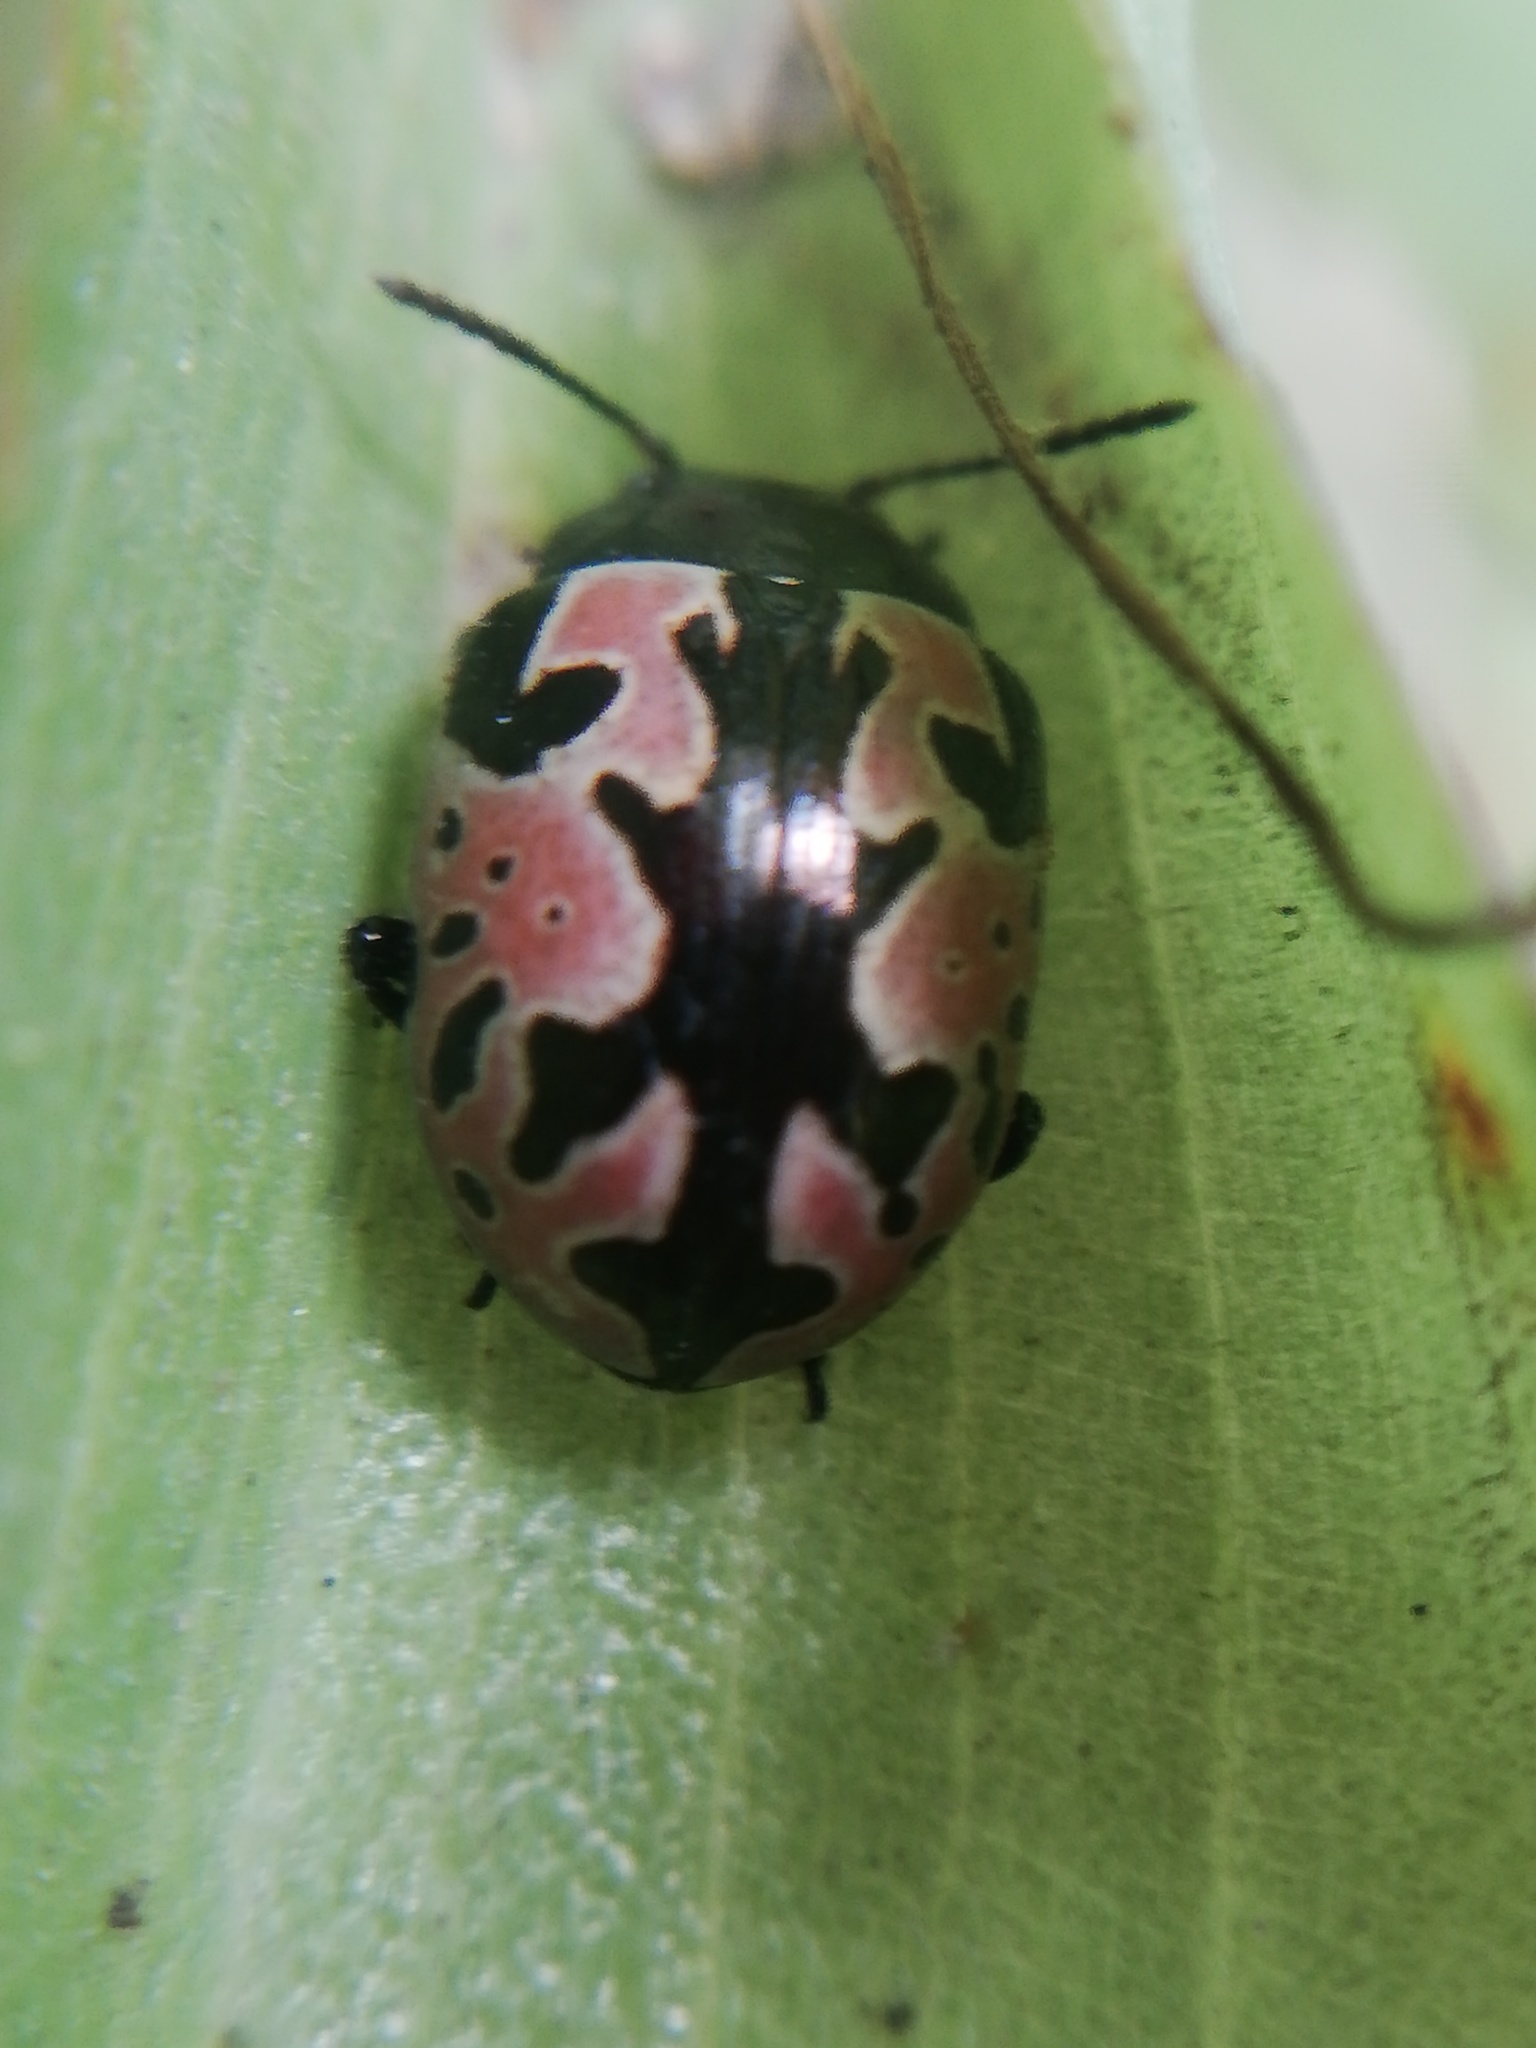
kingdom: Animalia
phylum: Arthropoda
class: Insecta
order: Coleoptera
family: Chrysomelidae
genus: Calligrapha
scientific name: Calligrapha sylvia
